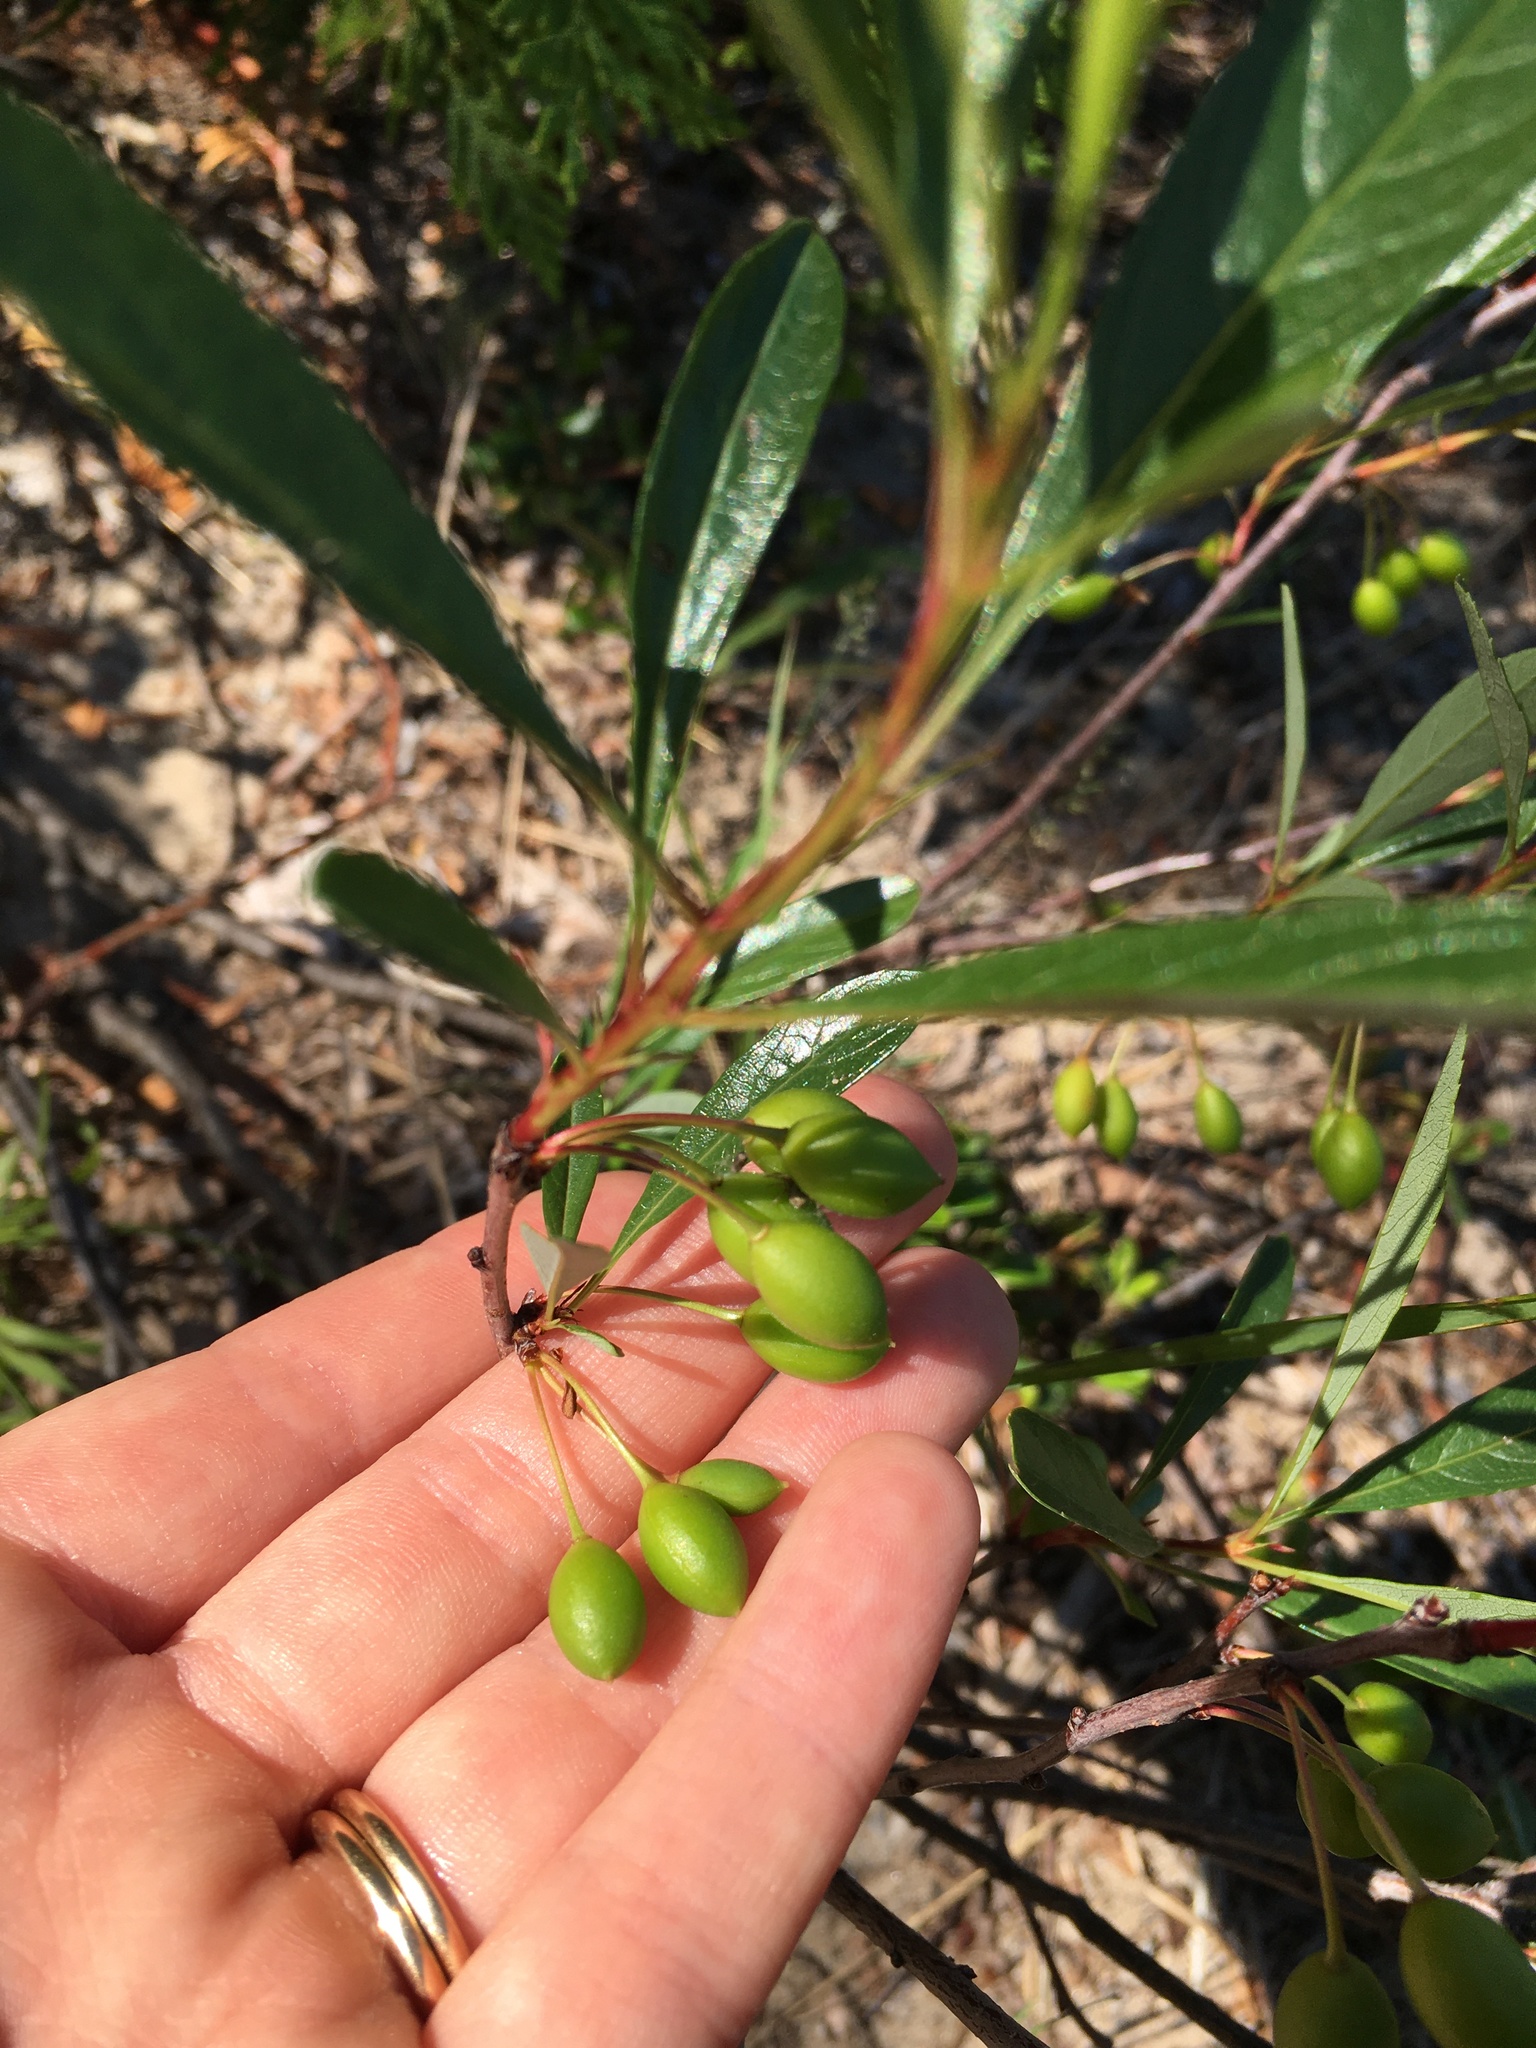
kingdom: Plantae
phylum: Tracheophyta
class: Magnoliopsida
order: Rosales
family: Rosaceae
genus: Prunus
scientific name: Prunus pumila
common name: Dwarf cherry
